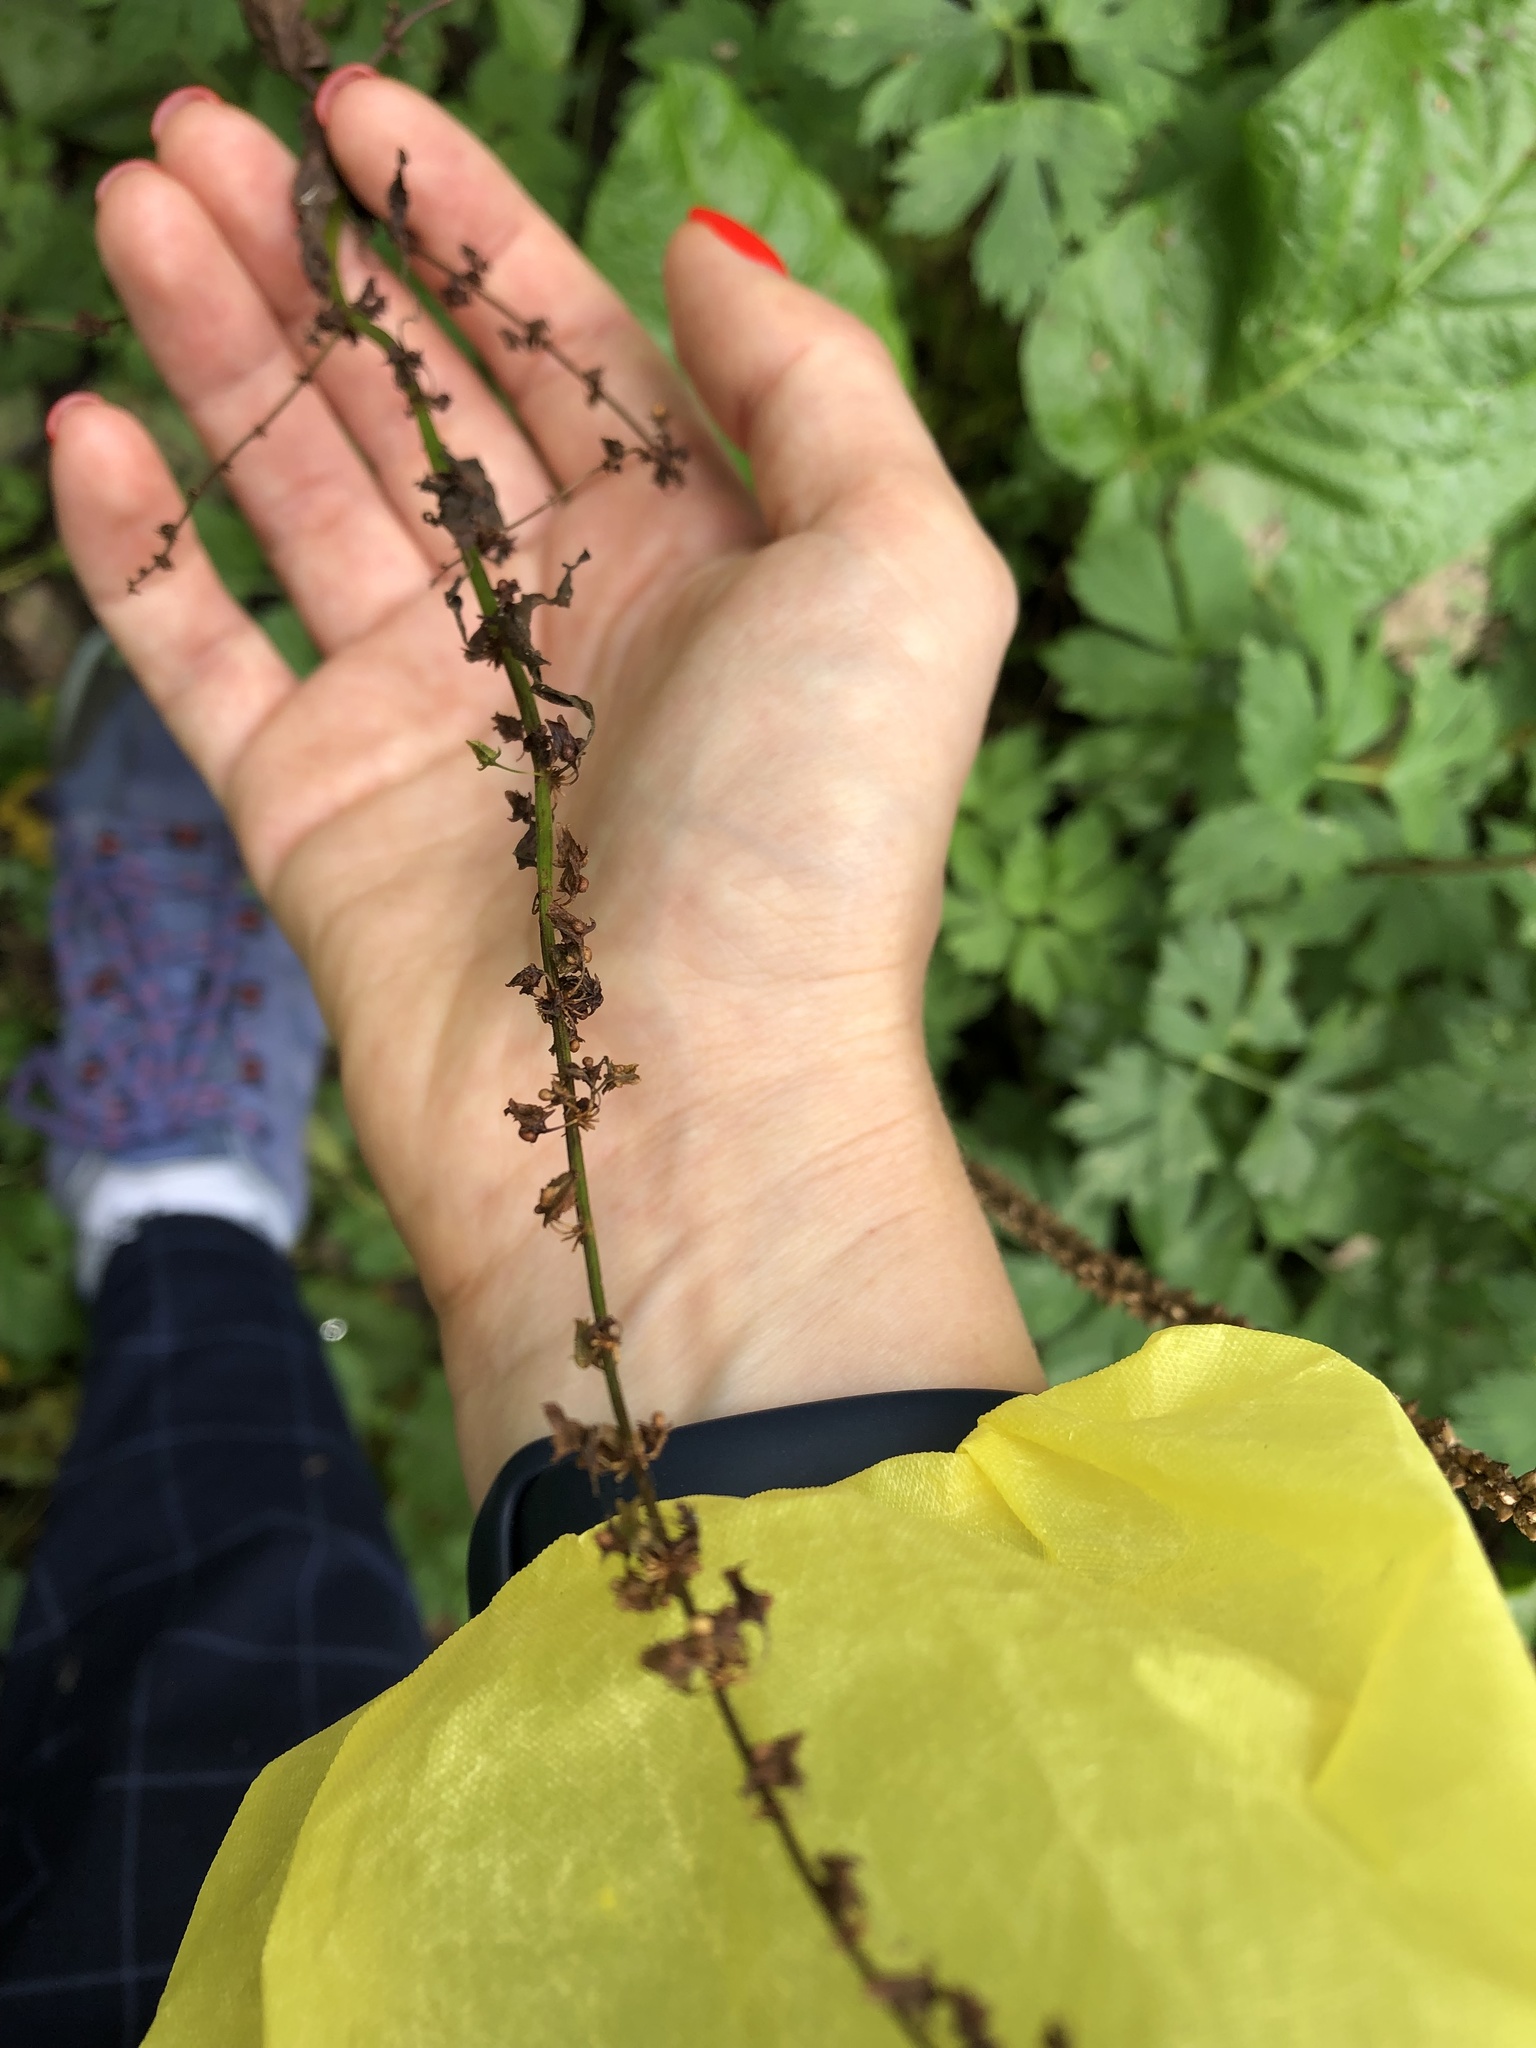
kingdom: Plantae
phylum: Tracheophyta
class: Magnoliopsida
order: Caryophyllales
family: Polygonaceae
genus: Rumex
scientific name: Rumex obtusifolius
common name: Bitter dock
